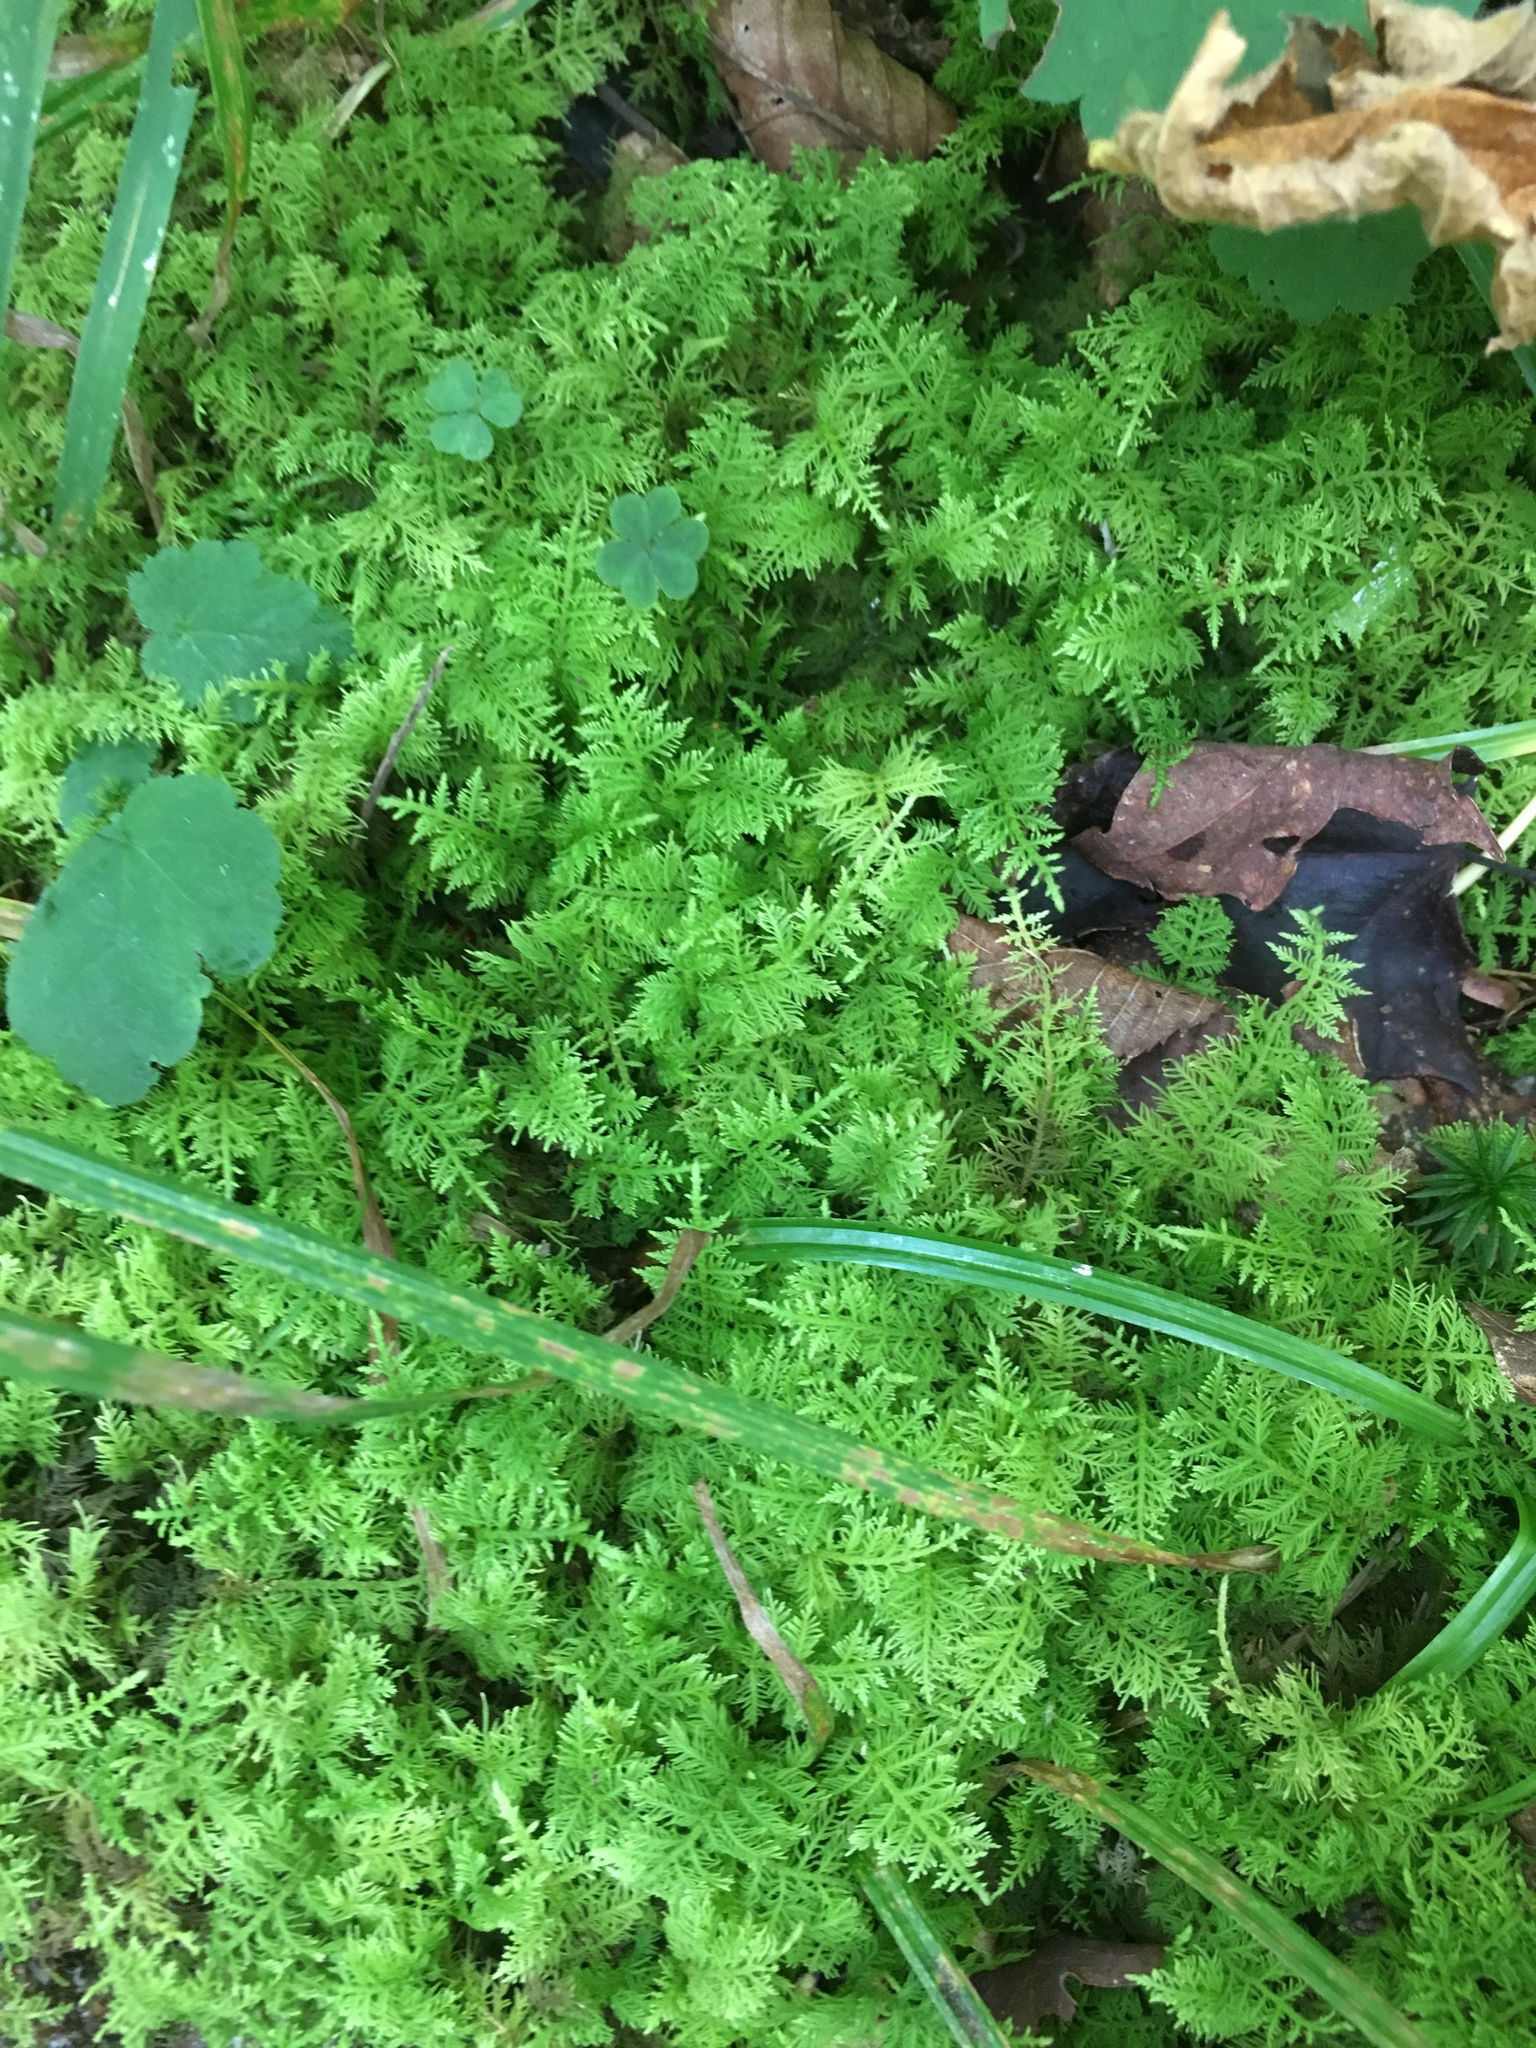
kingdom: Plantae
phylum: Bryophyta
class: Bryopsida
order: Hypnales
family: Thuidiaceae
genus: Thuidium
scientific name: Thuidium delicatulum
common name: Delicate fern moss
